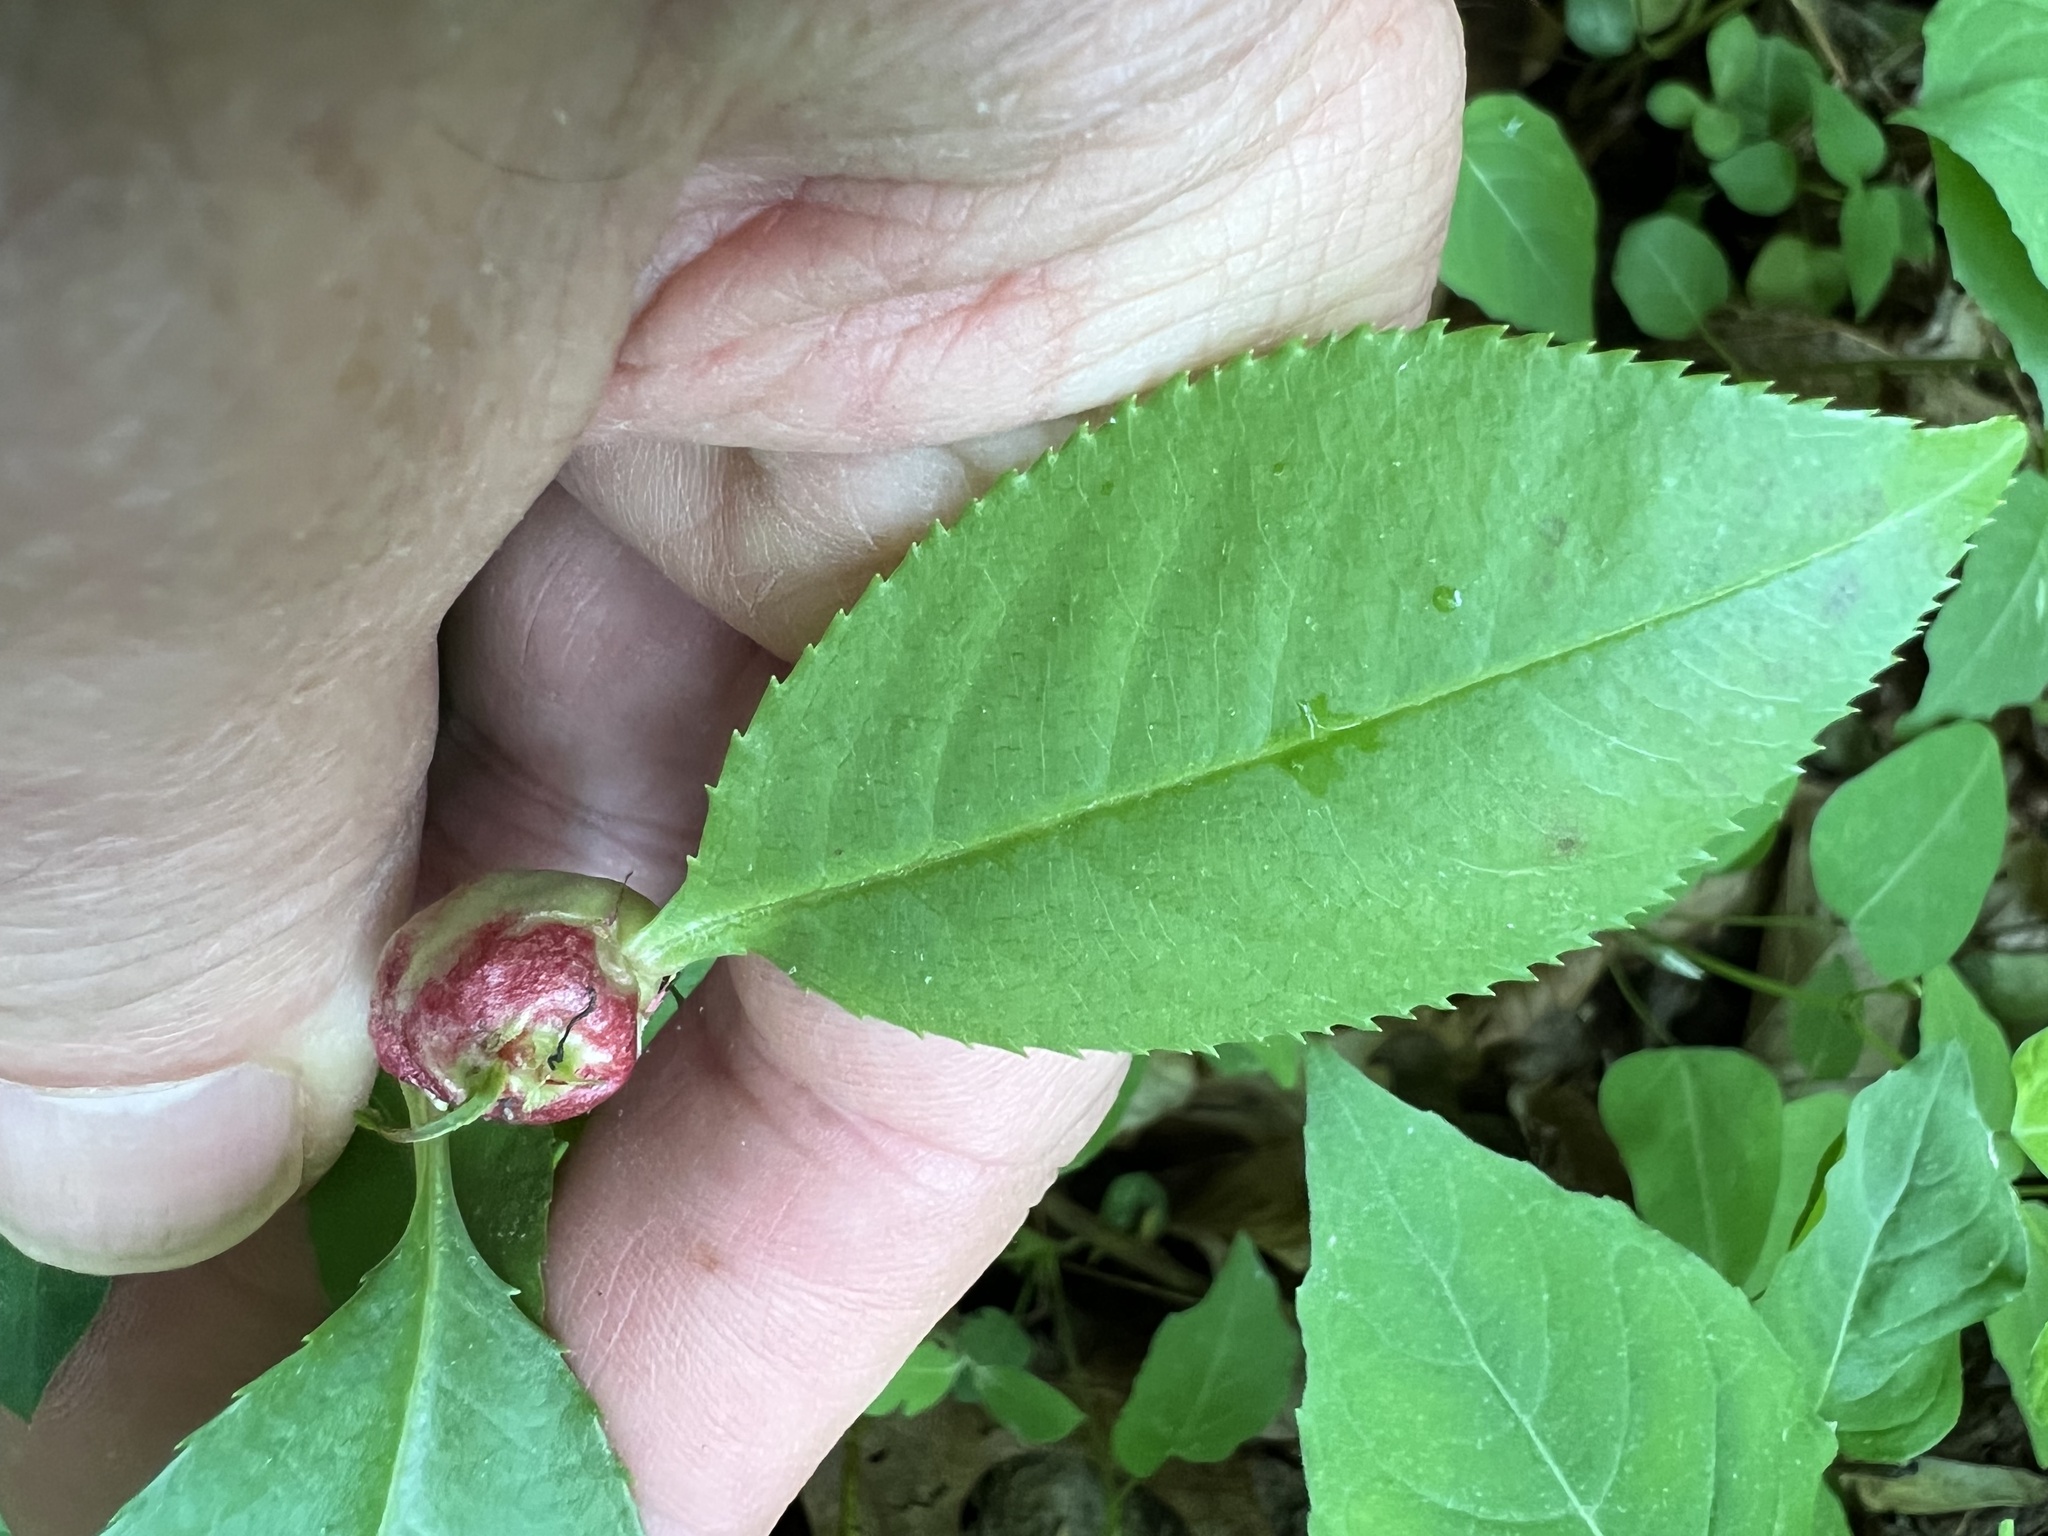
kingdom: Animalia
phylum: Arthropoda
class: Insecta
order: Diptera
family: Cecidomyiidae
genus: Contarinia
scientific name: Contarinia cerasiserotinae
